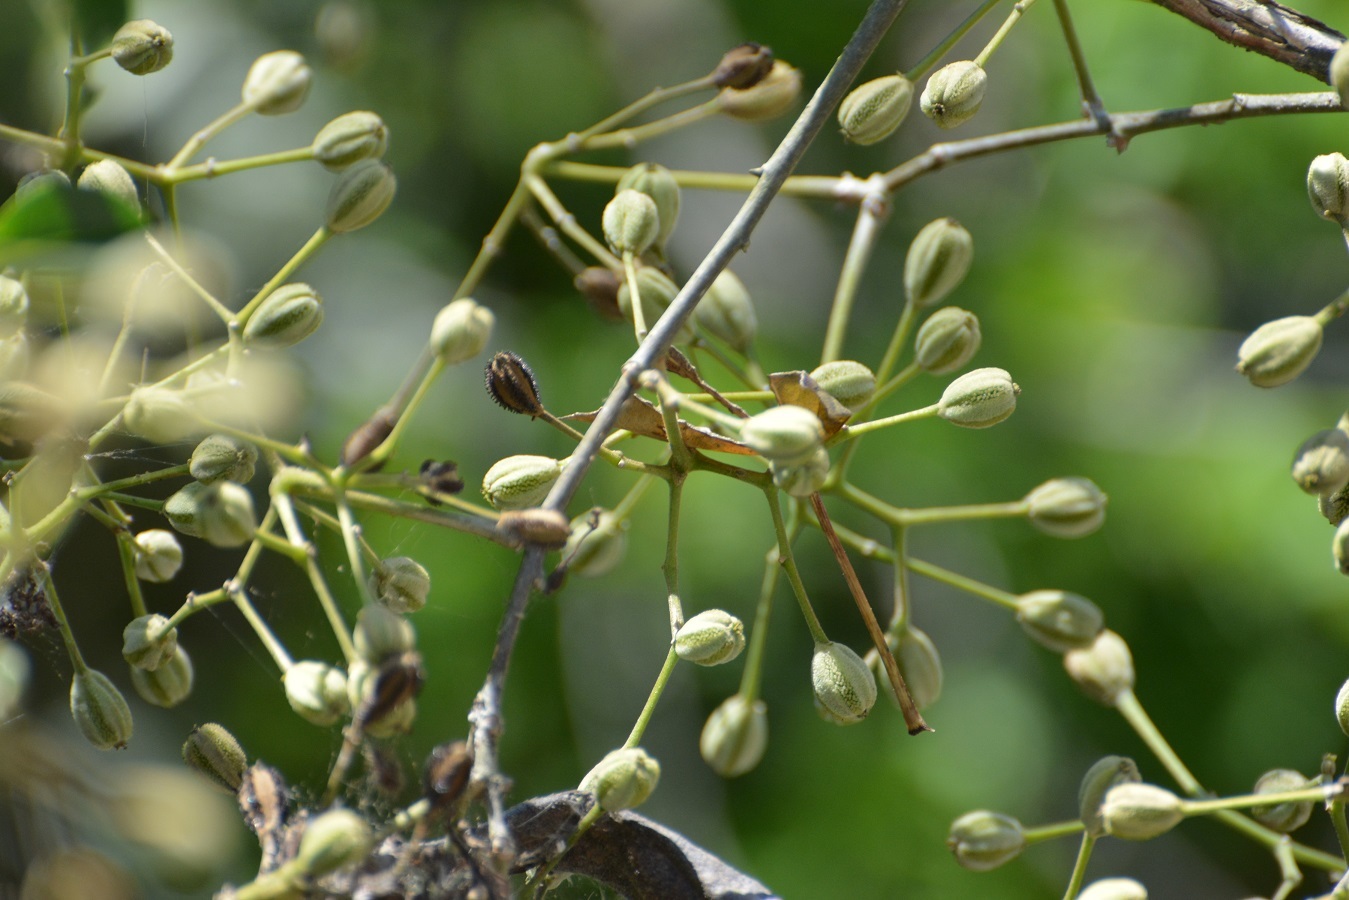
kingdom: Plantae
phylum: Tracheophyta
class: Magnoliopsida
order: Caryophyllales
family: Nyctaginaceae
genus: Pisonia
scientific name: Pisonia macranthocarpa
